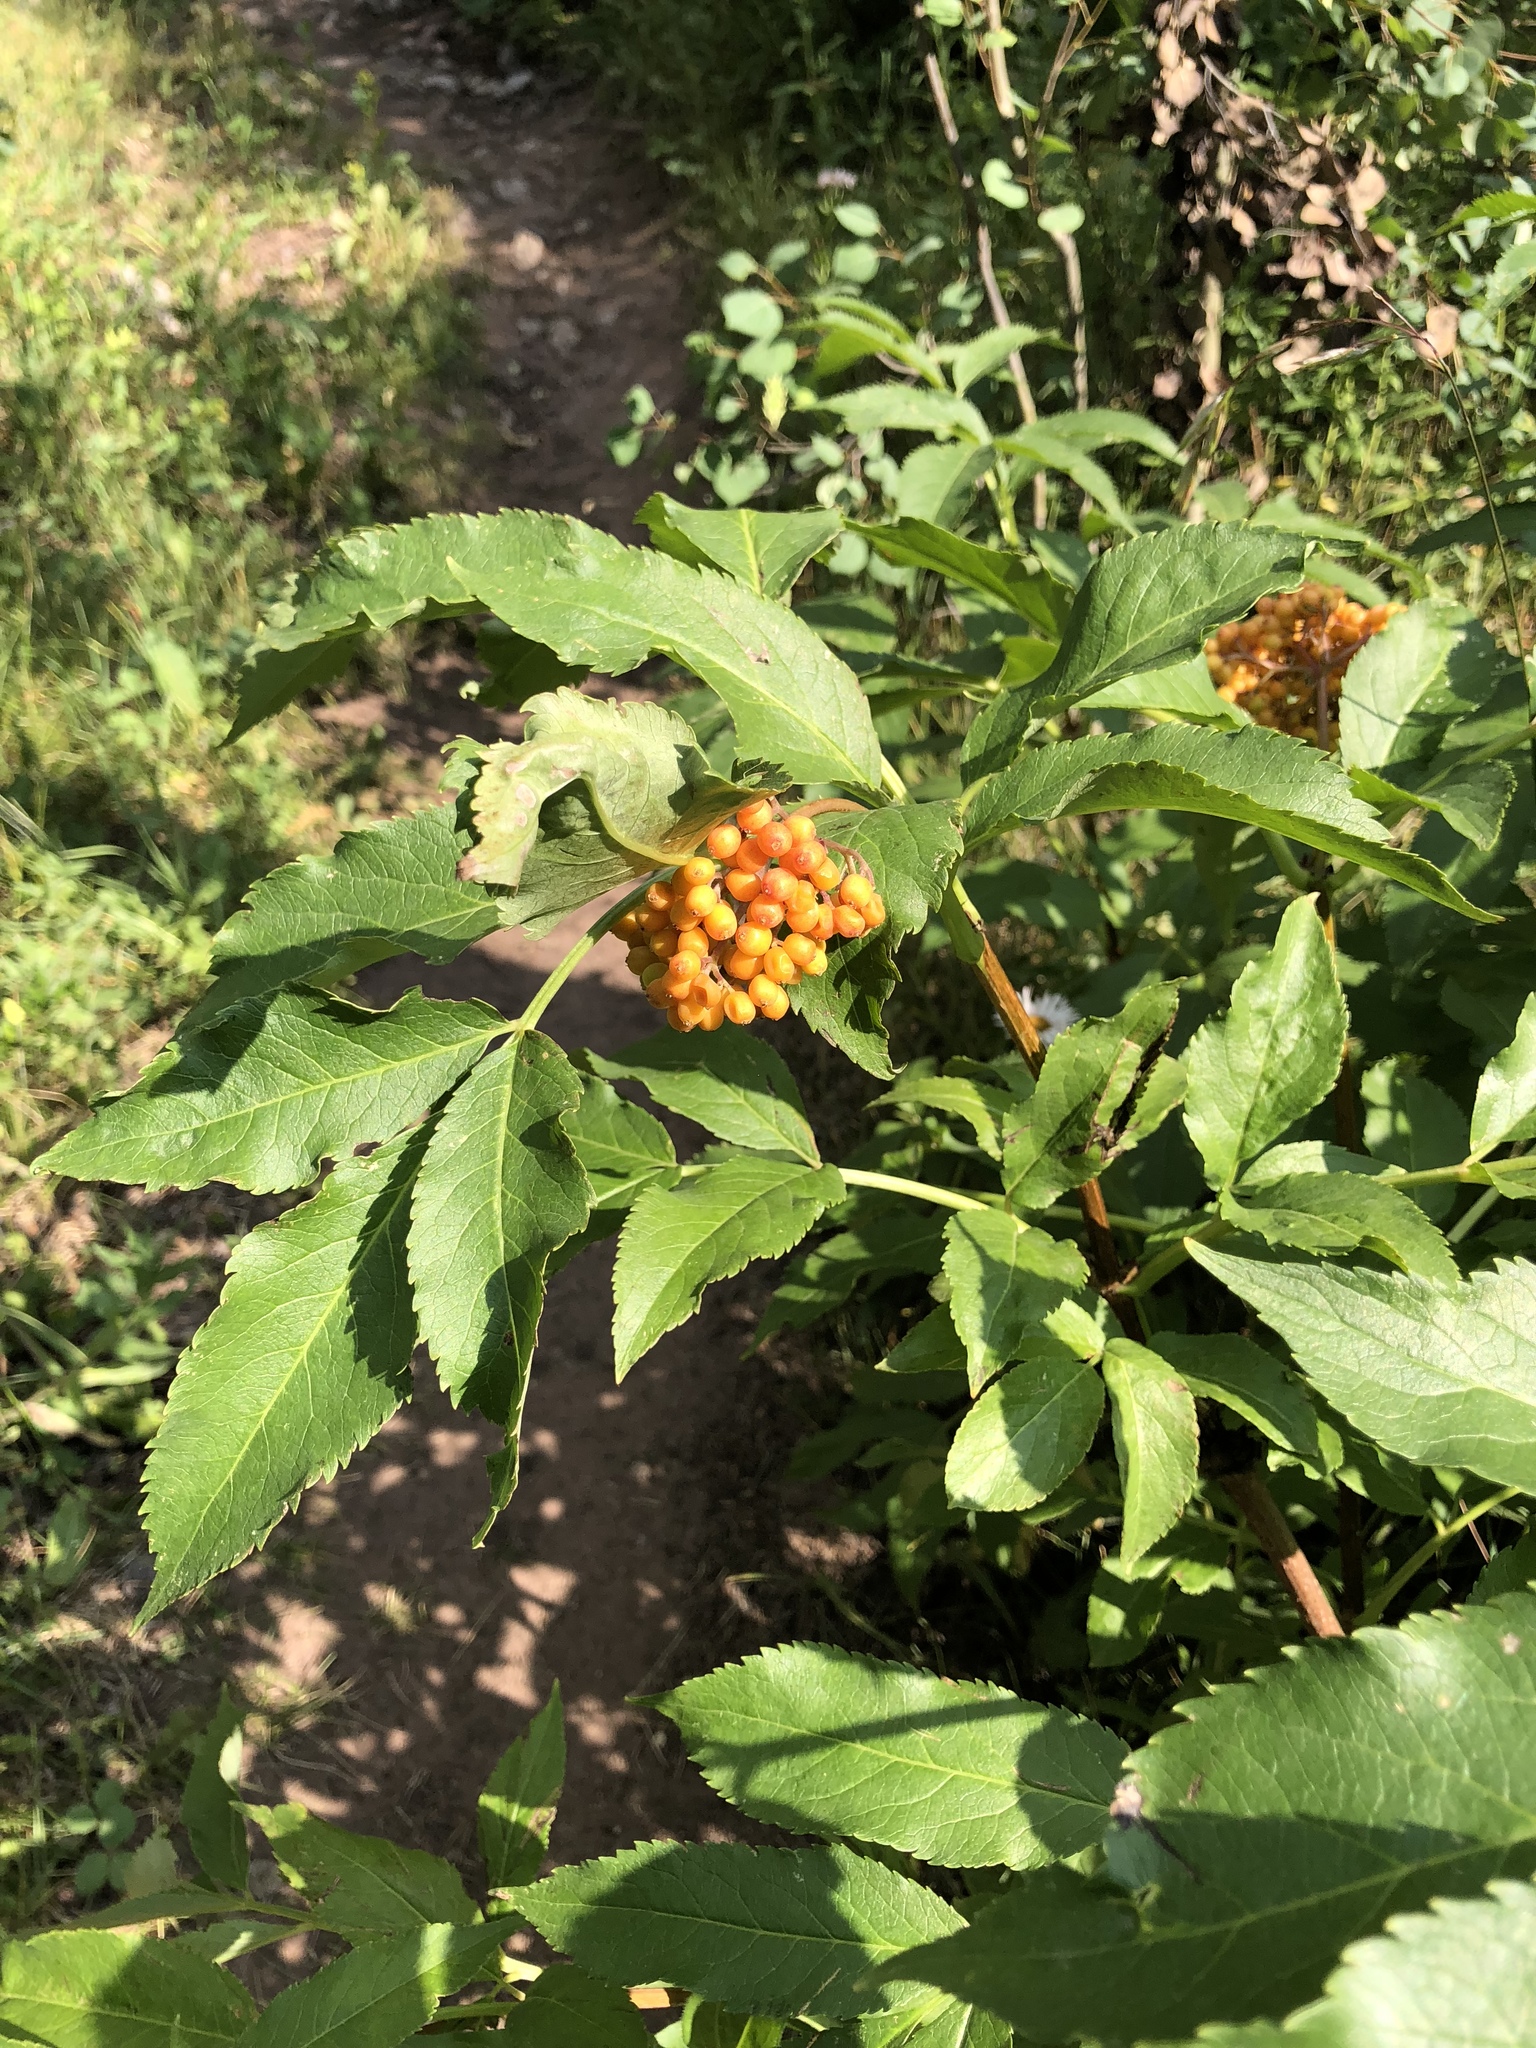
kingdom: Plantae
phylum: Tracheophyta
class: Magnoliopsida
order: Dipsacales
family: Viburnaceae
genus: Sambucus
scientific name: Sambucus racemosa
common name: Red-berried elder
